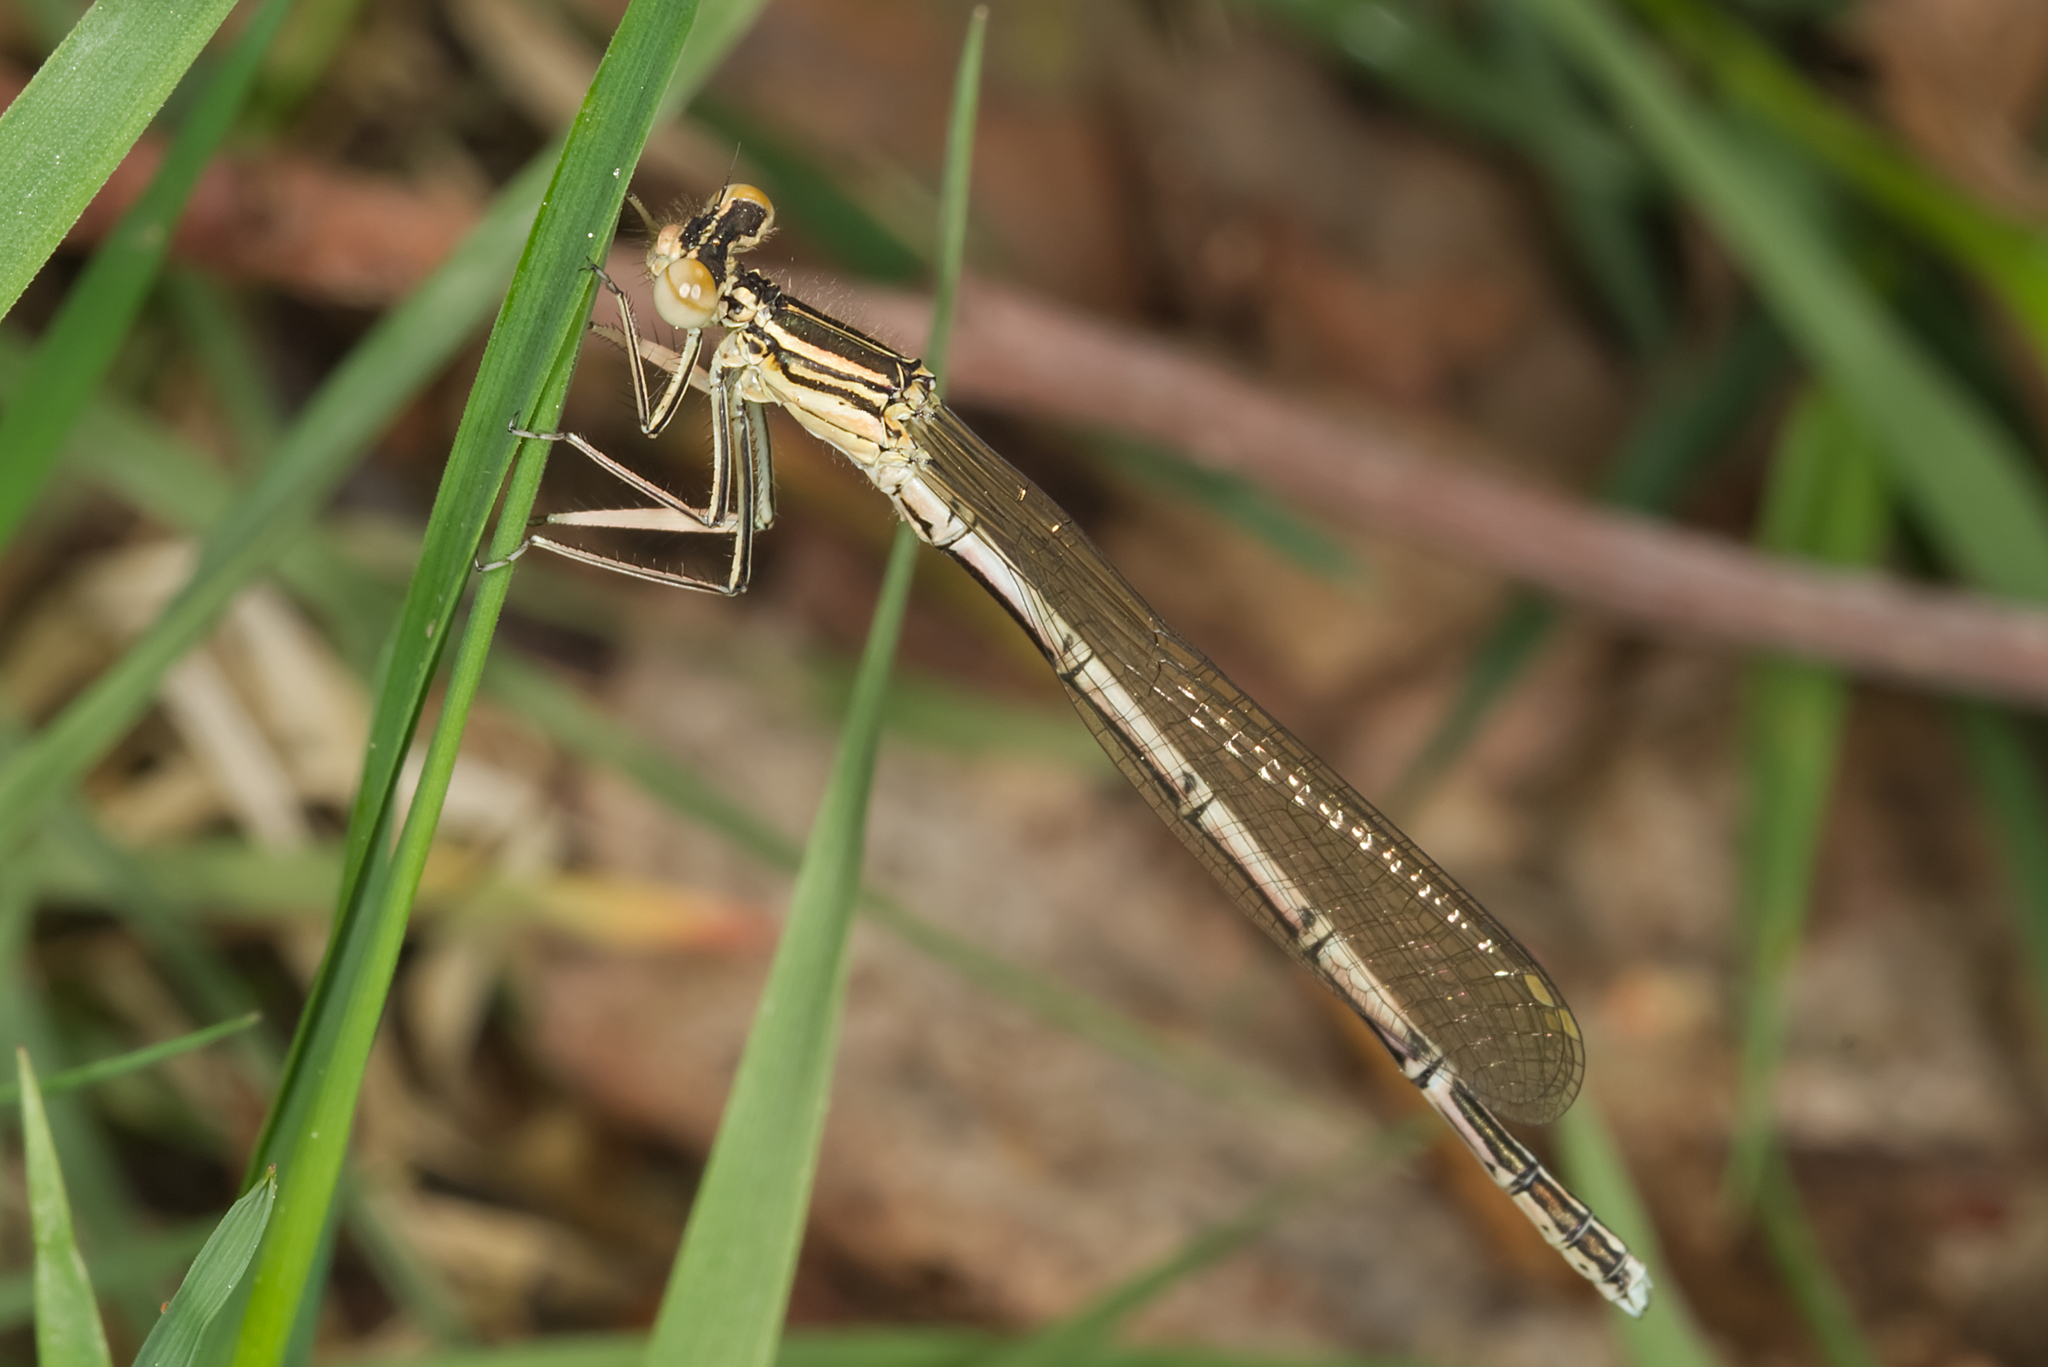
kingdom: Animalia
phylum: Arthropoda
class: Insecta
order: Odonata
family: Platycnemididae
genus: Platycnemis
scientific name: Platycnemis pennipes
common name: White-legged damselfly
